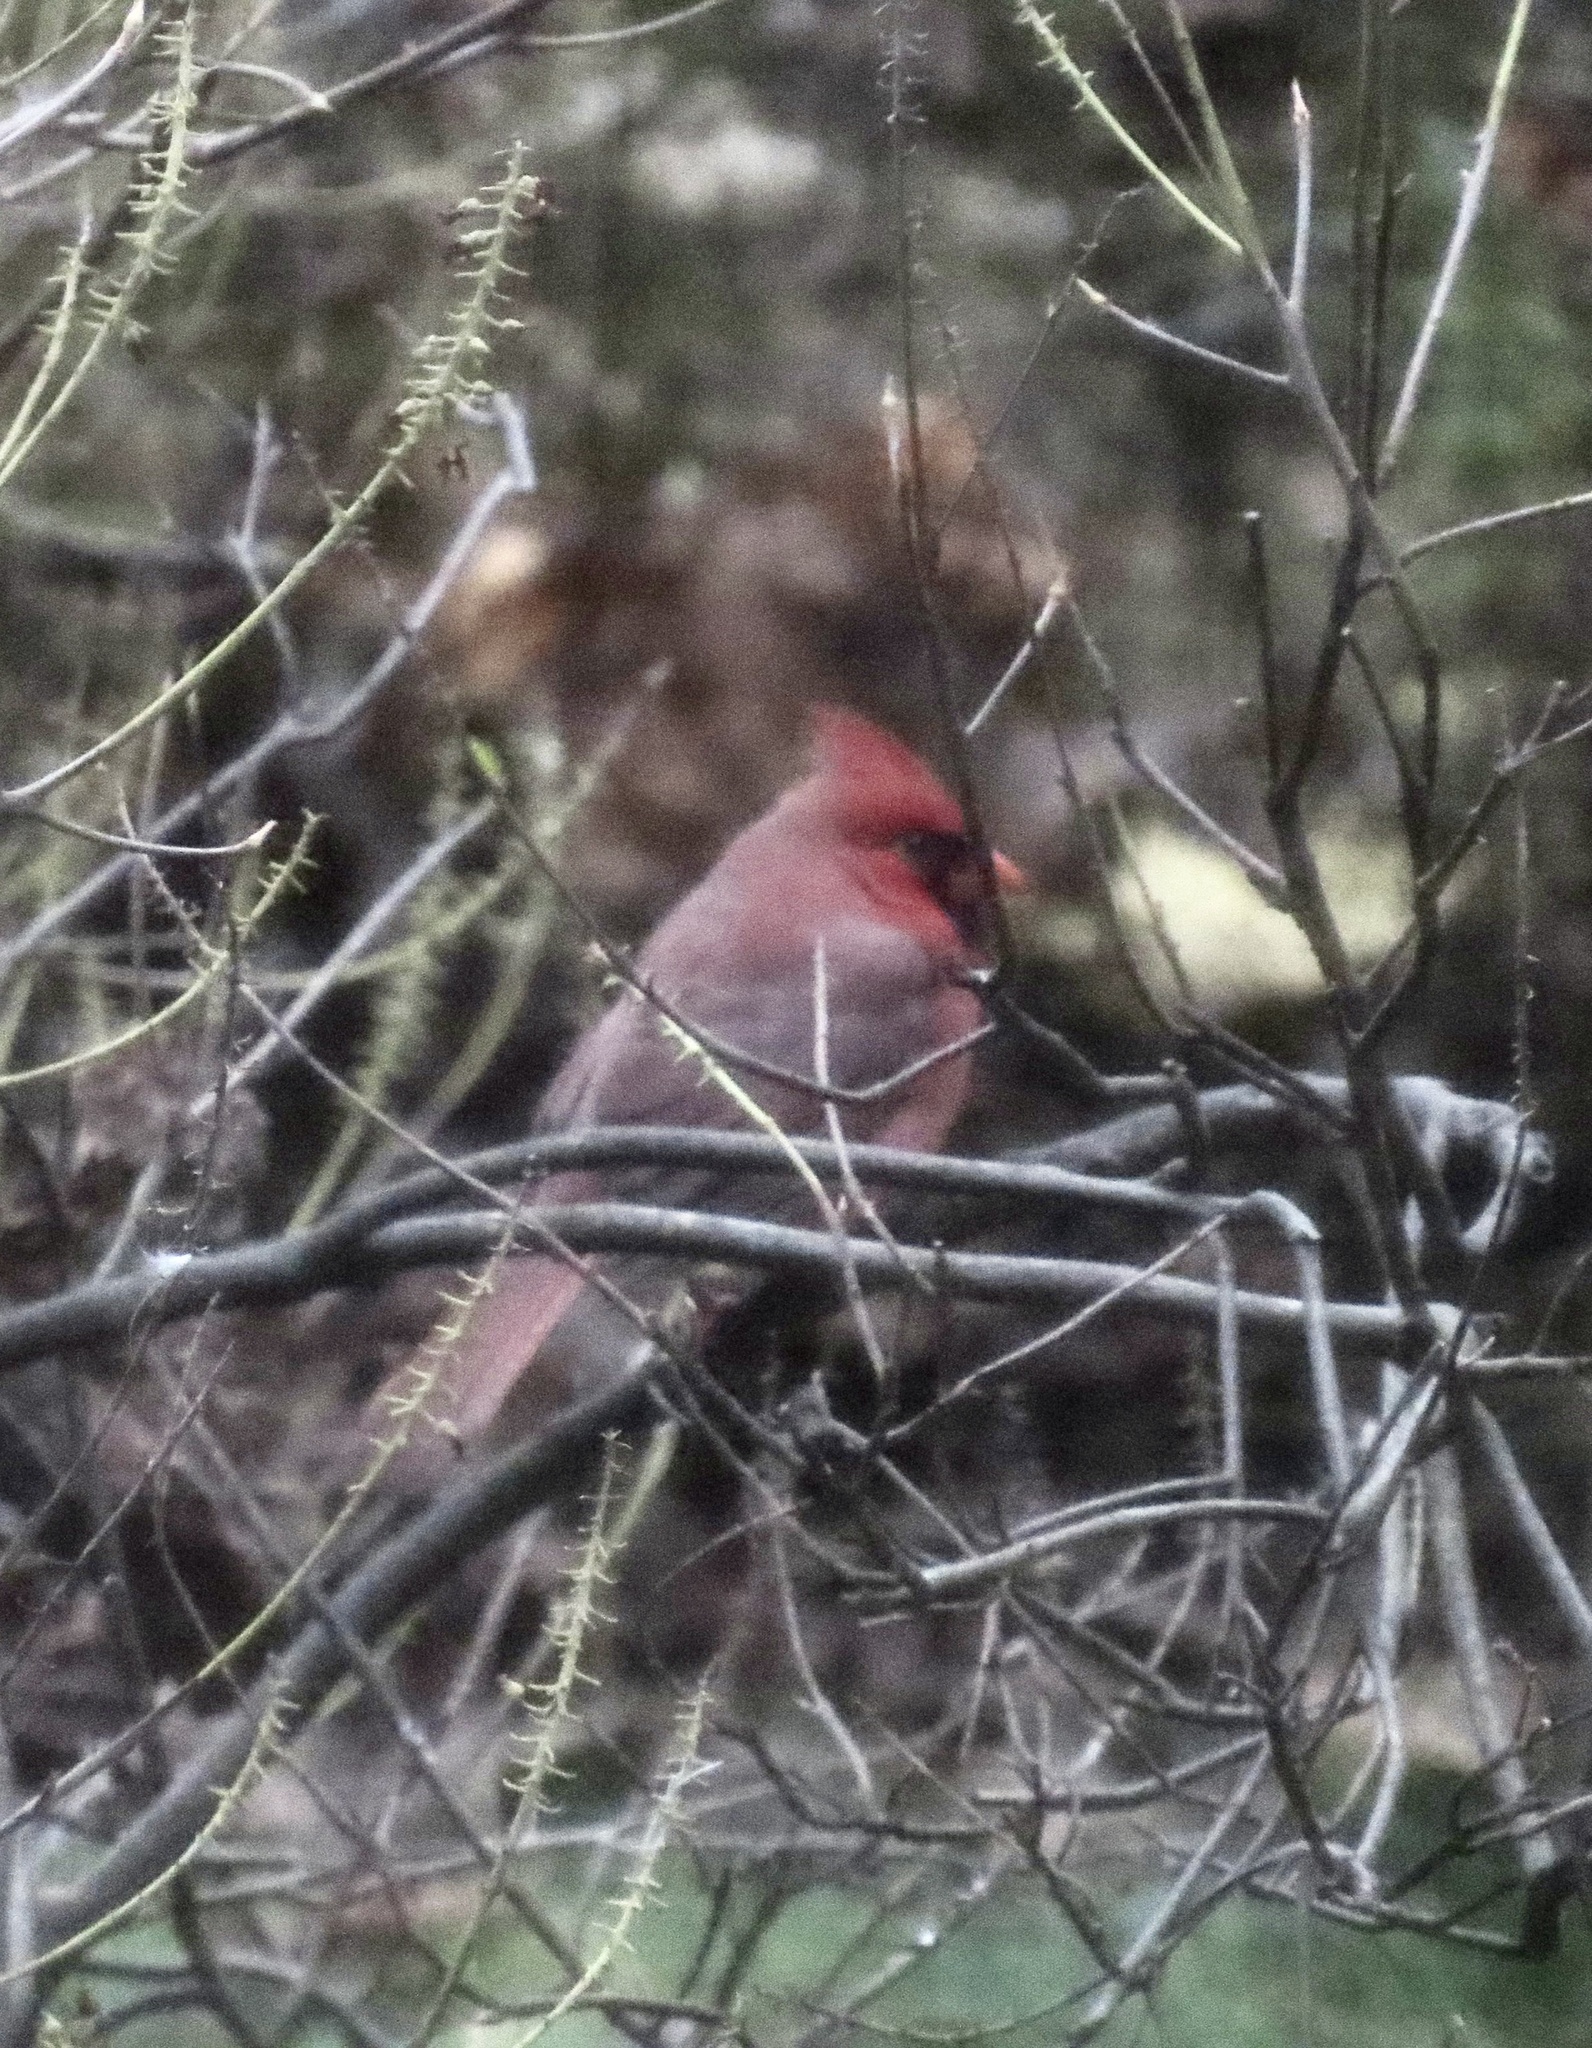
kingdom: Animalia
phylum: Chordata
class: Aves
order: Passeriformes
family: Cardinalidae
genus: Cardinalis
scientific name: Cardinalis cardinalis
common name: Northern cardinal
